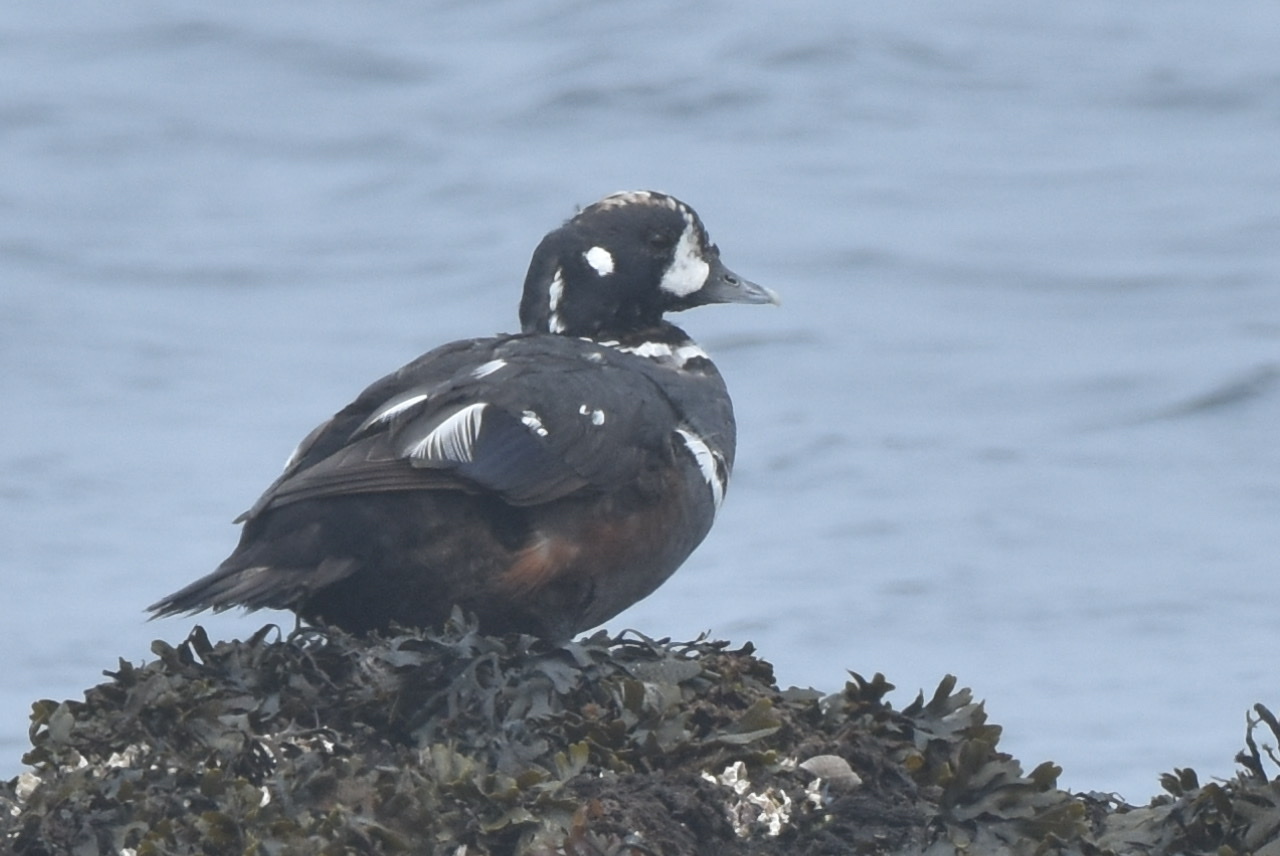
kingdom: Animalia
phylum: Chordata
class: Aves
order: Anseriformes
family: Anatidae
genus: Histrionicus
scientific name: Histrionicus histrionicus
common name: Harlequin duck
